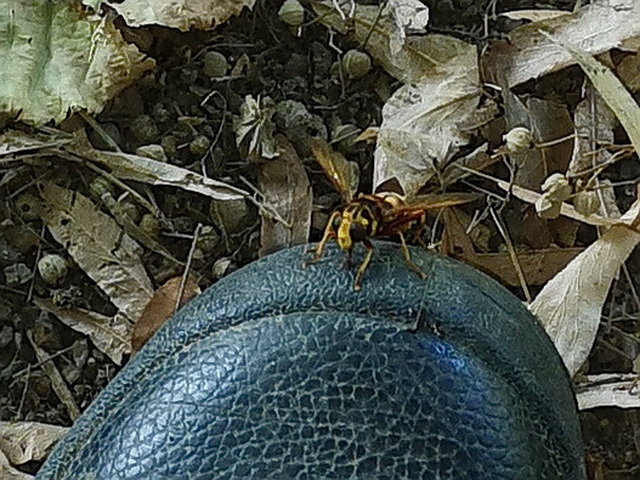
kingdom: Animalia
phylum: Arthropoda
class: Insecta
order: Diptera
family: Syrphidae
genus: Milesia
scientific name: Milesia crabroniformis
